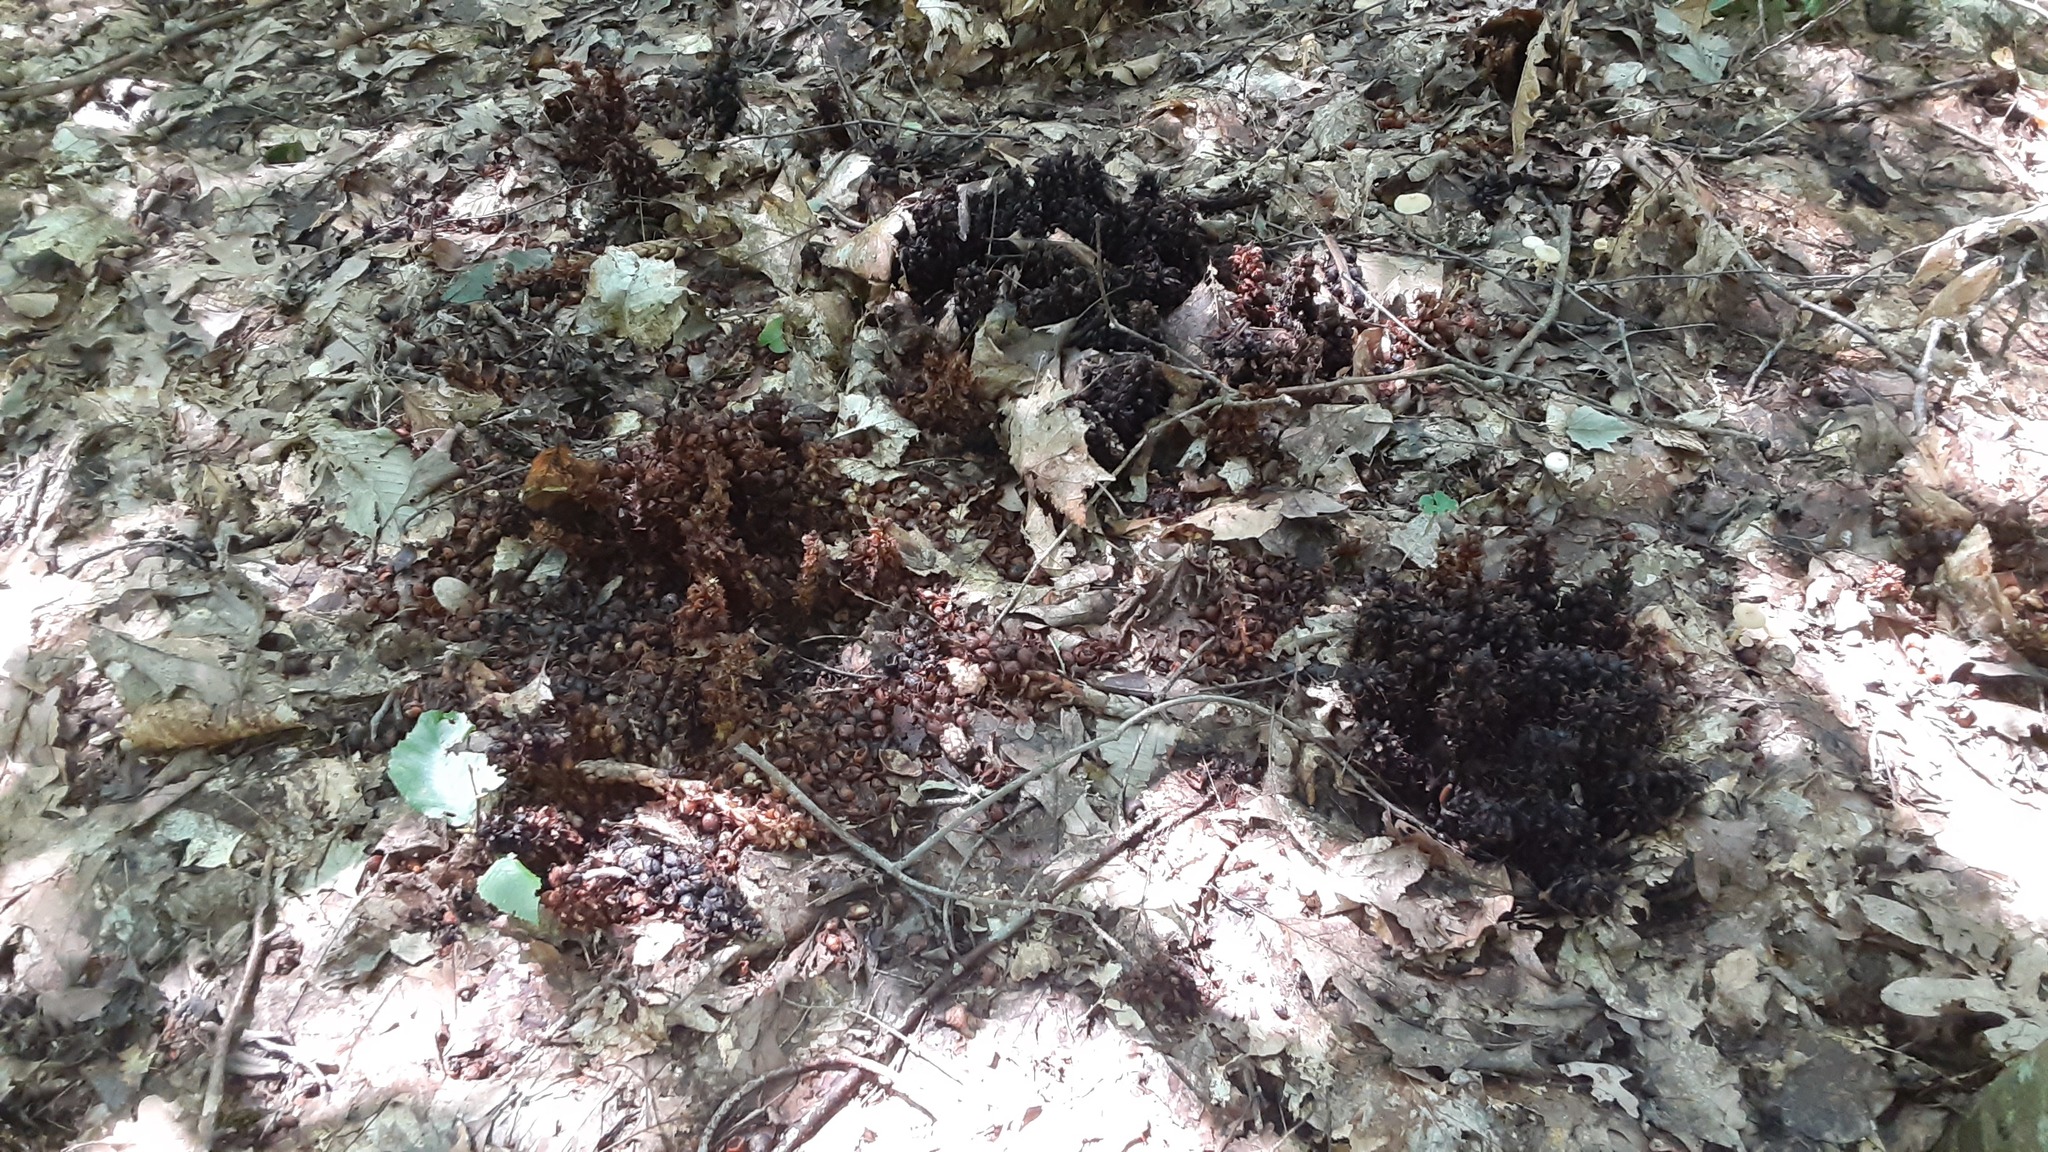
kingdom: Plantae
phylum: Tracheophyta
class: Magnoliopsida
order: Lamiales
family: Orobanchaceae
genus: Conopholis
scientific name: Conopholis americana
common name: American cancer-root
